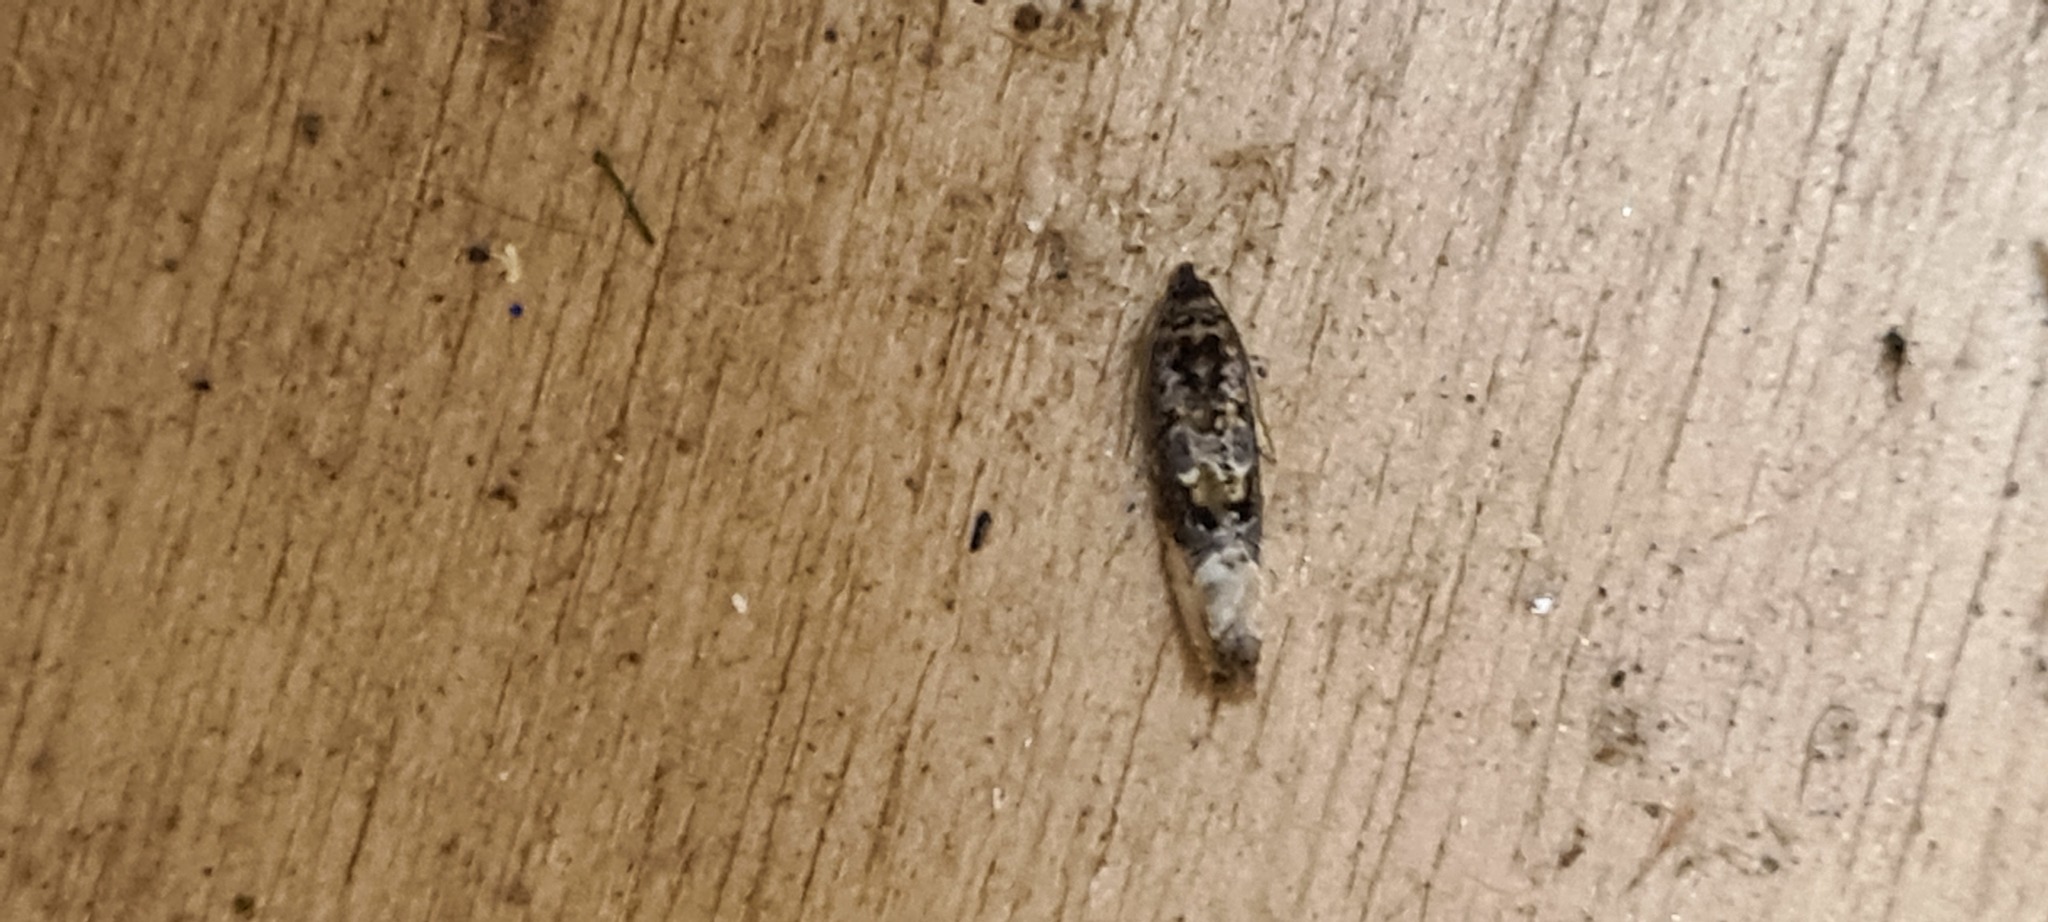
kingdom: Animalia
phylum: Arthropoda
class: Insecta
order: Lepidoptera
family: Tortricidae
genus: Hedya
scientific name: Hedya nubiferana
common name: Marbled orchard tortrix
